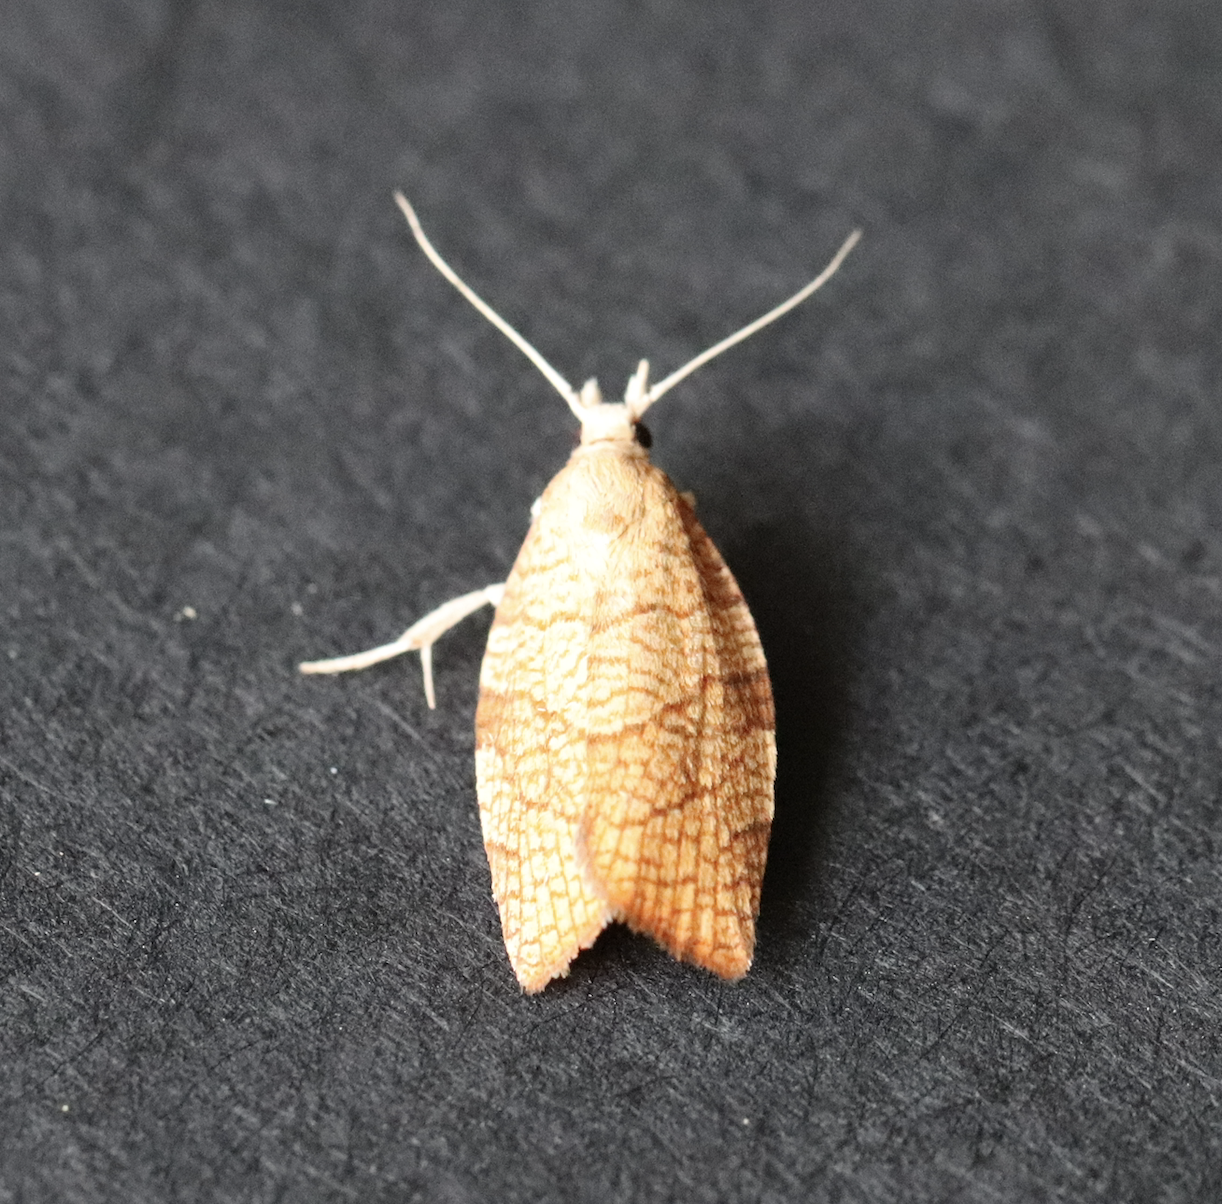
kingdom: Animalia
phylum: Arthropoda
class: Insecta
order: Lepidoptera
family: Tortricidae
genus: Pandemis
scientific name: Pandemis corylana
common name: Chequered fruit-tree tortrix
